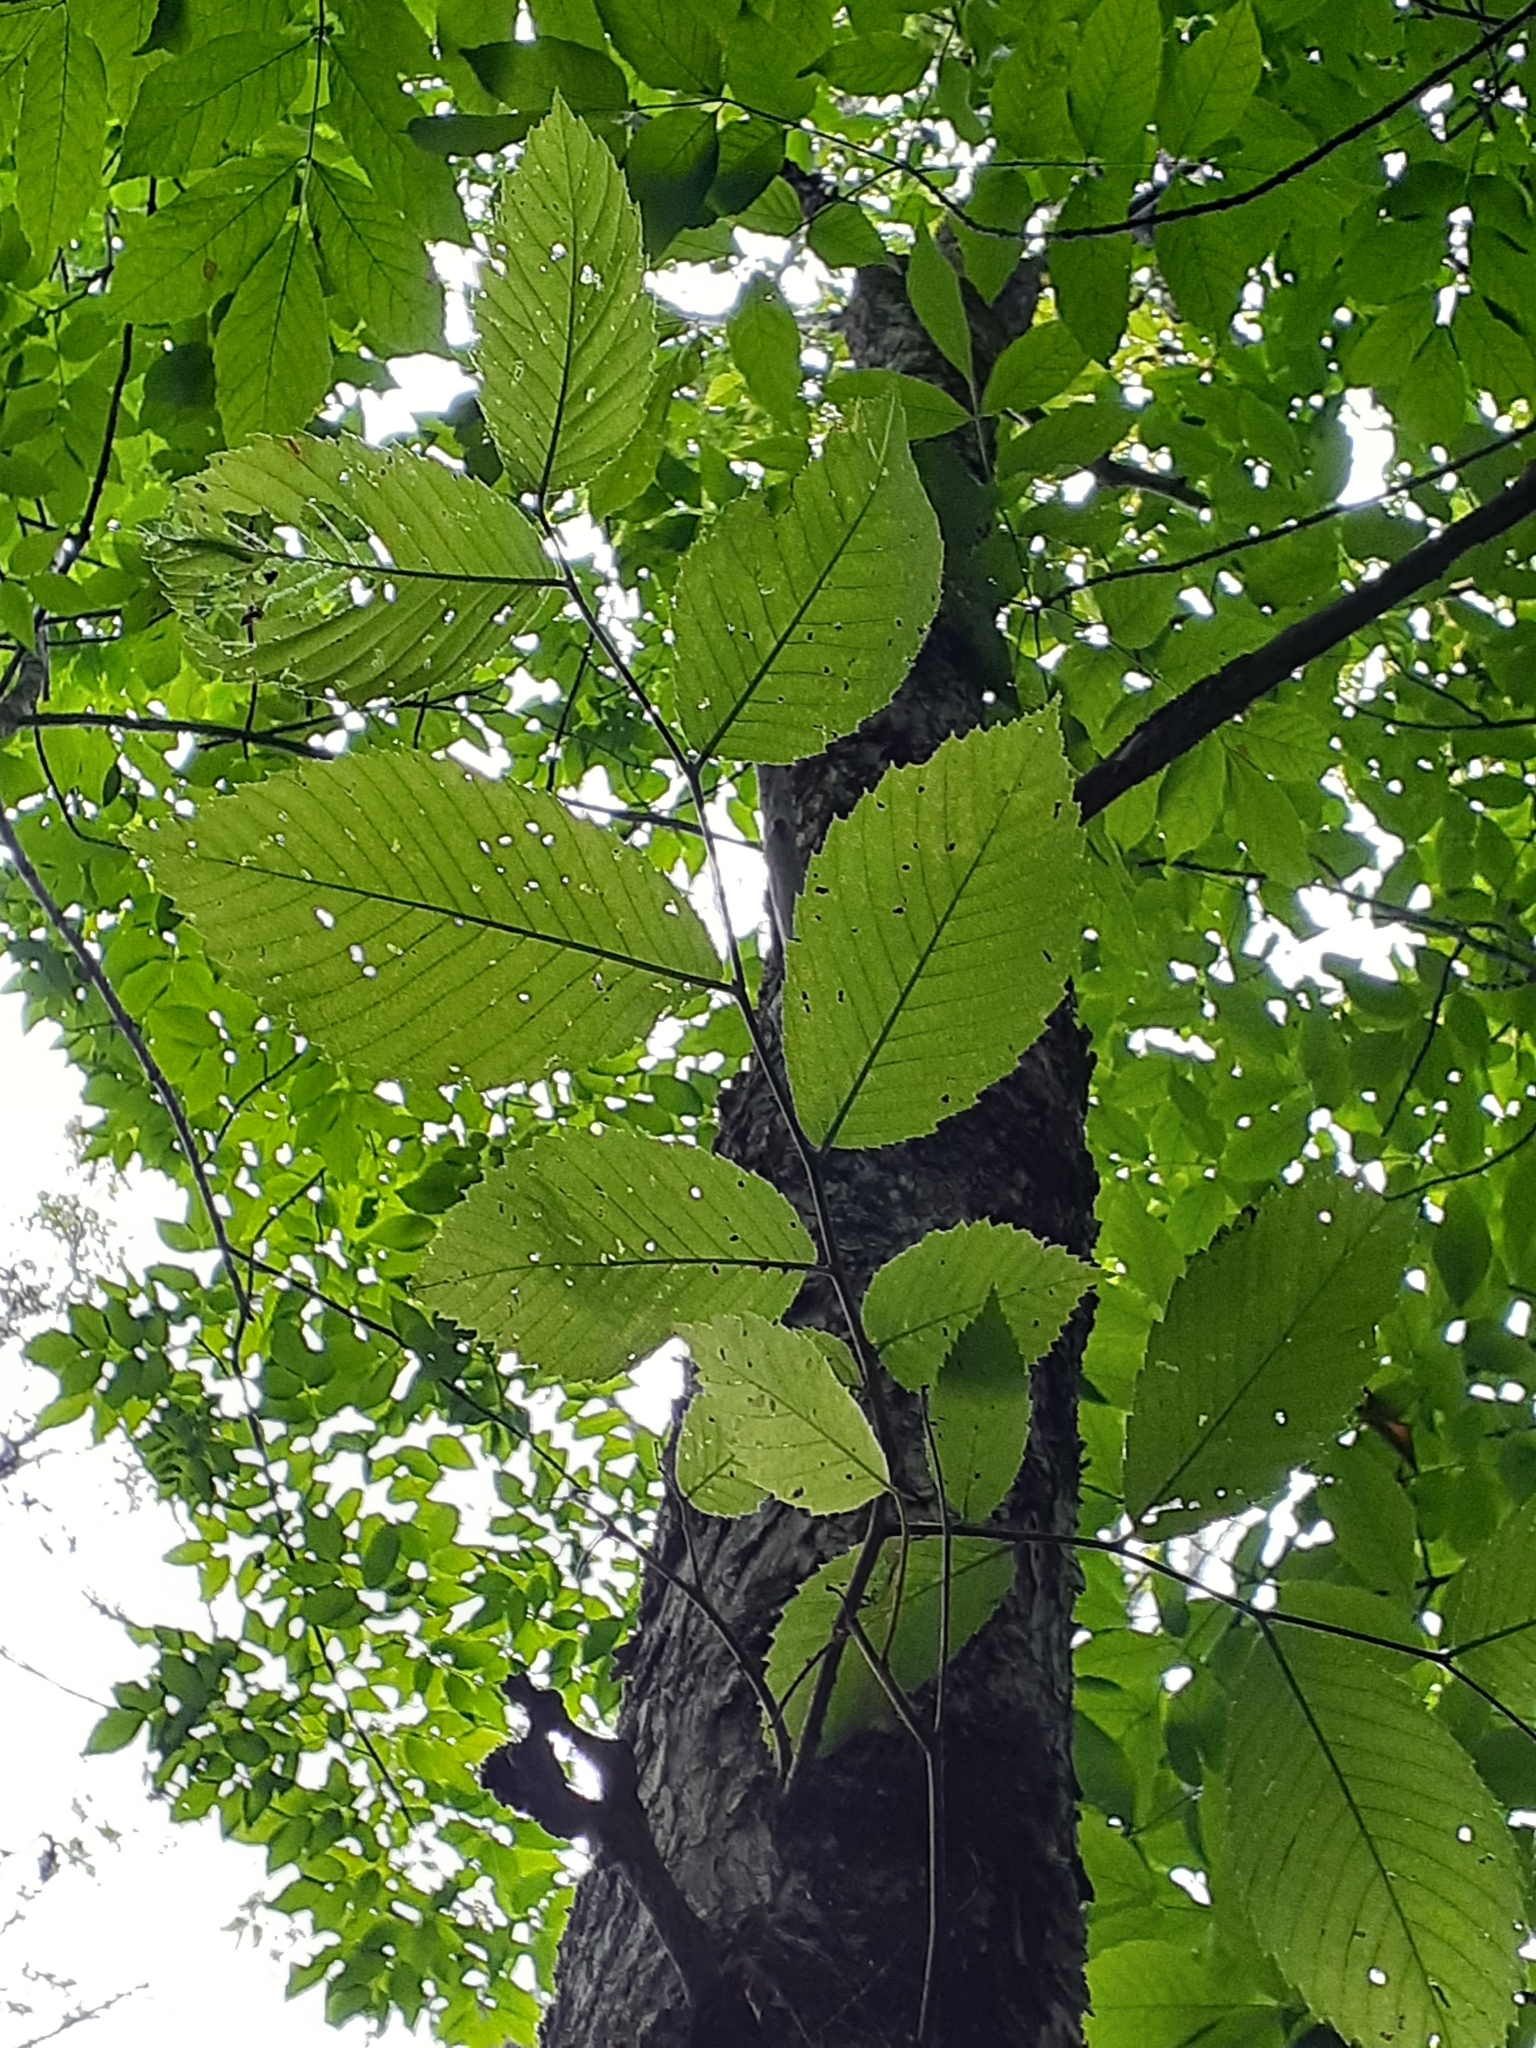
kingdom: Plantae
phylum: Tracheophyta
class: Magnoliopsida
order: Rosales
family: Ulmaceae
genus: Ulmus
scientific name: Ulmus americana
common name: American elm
